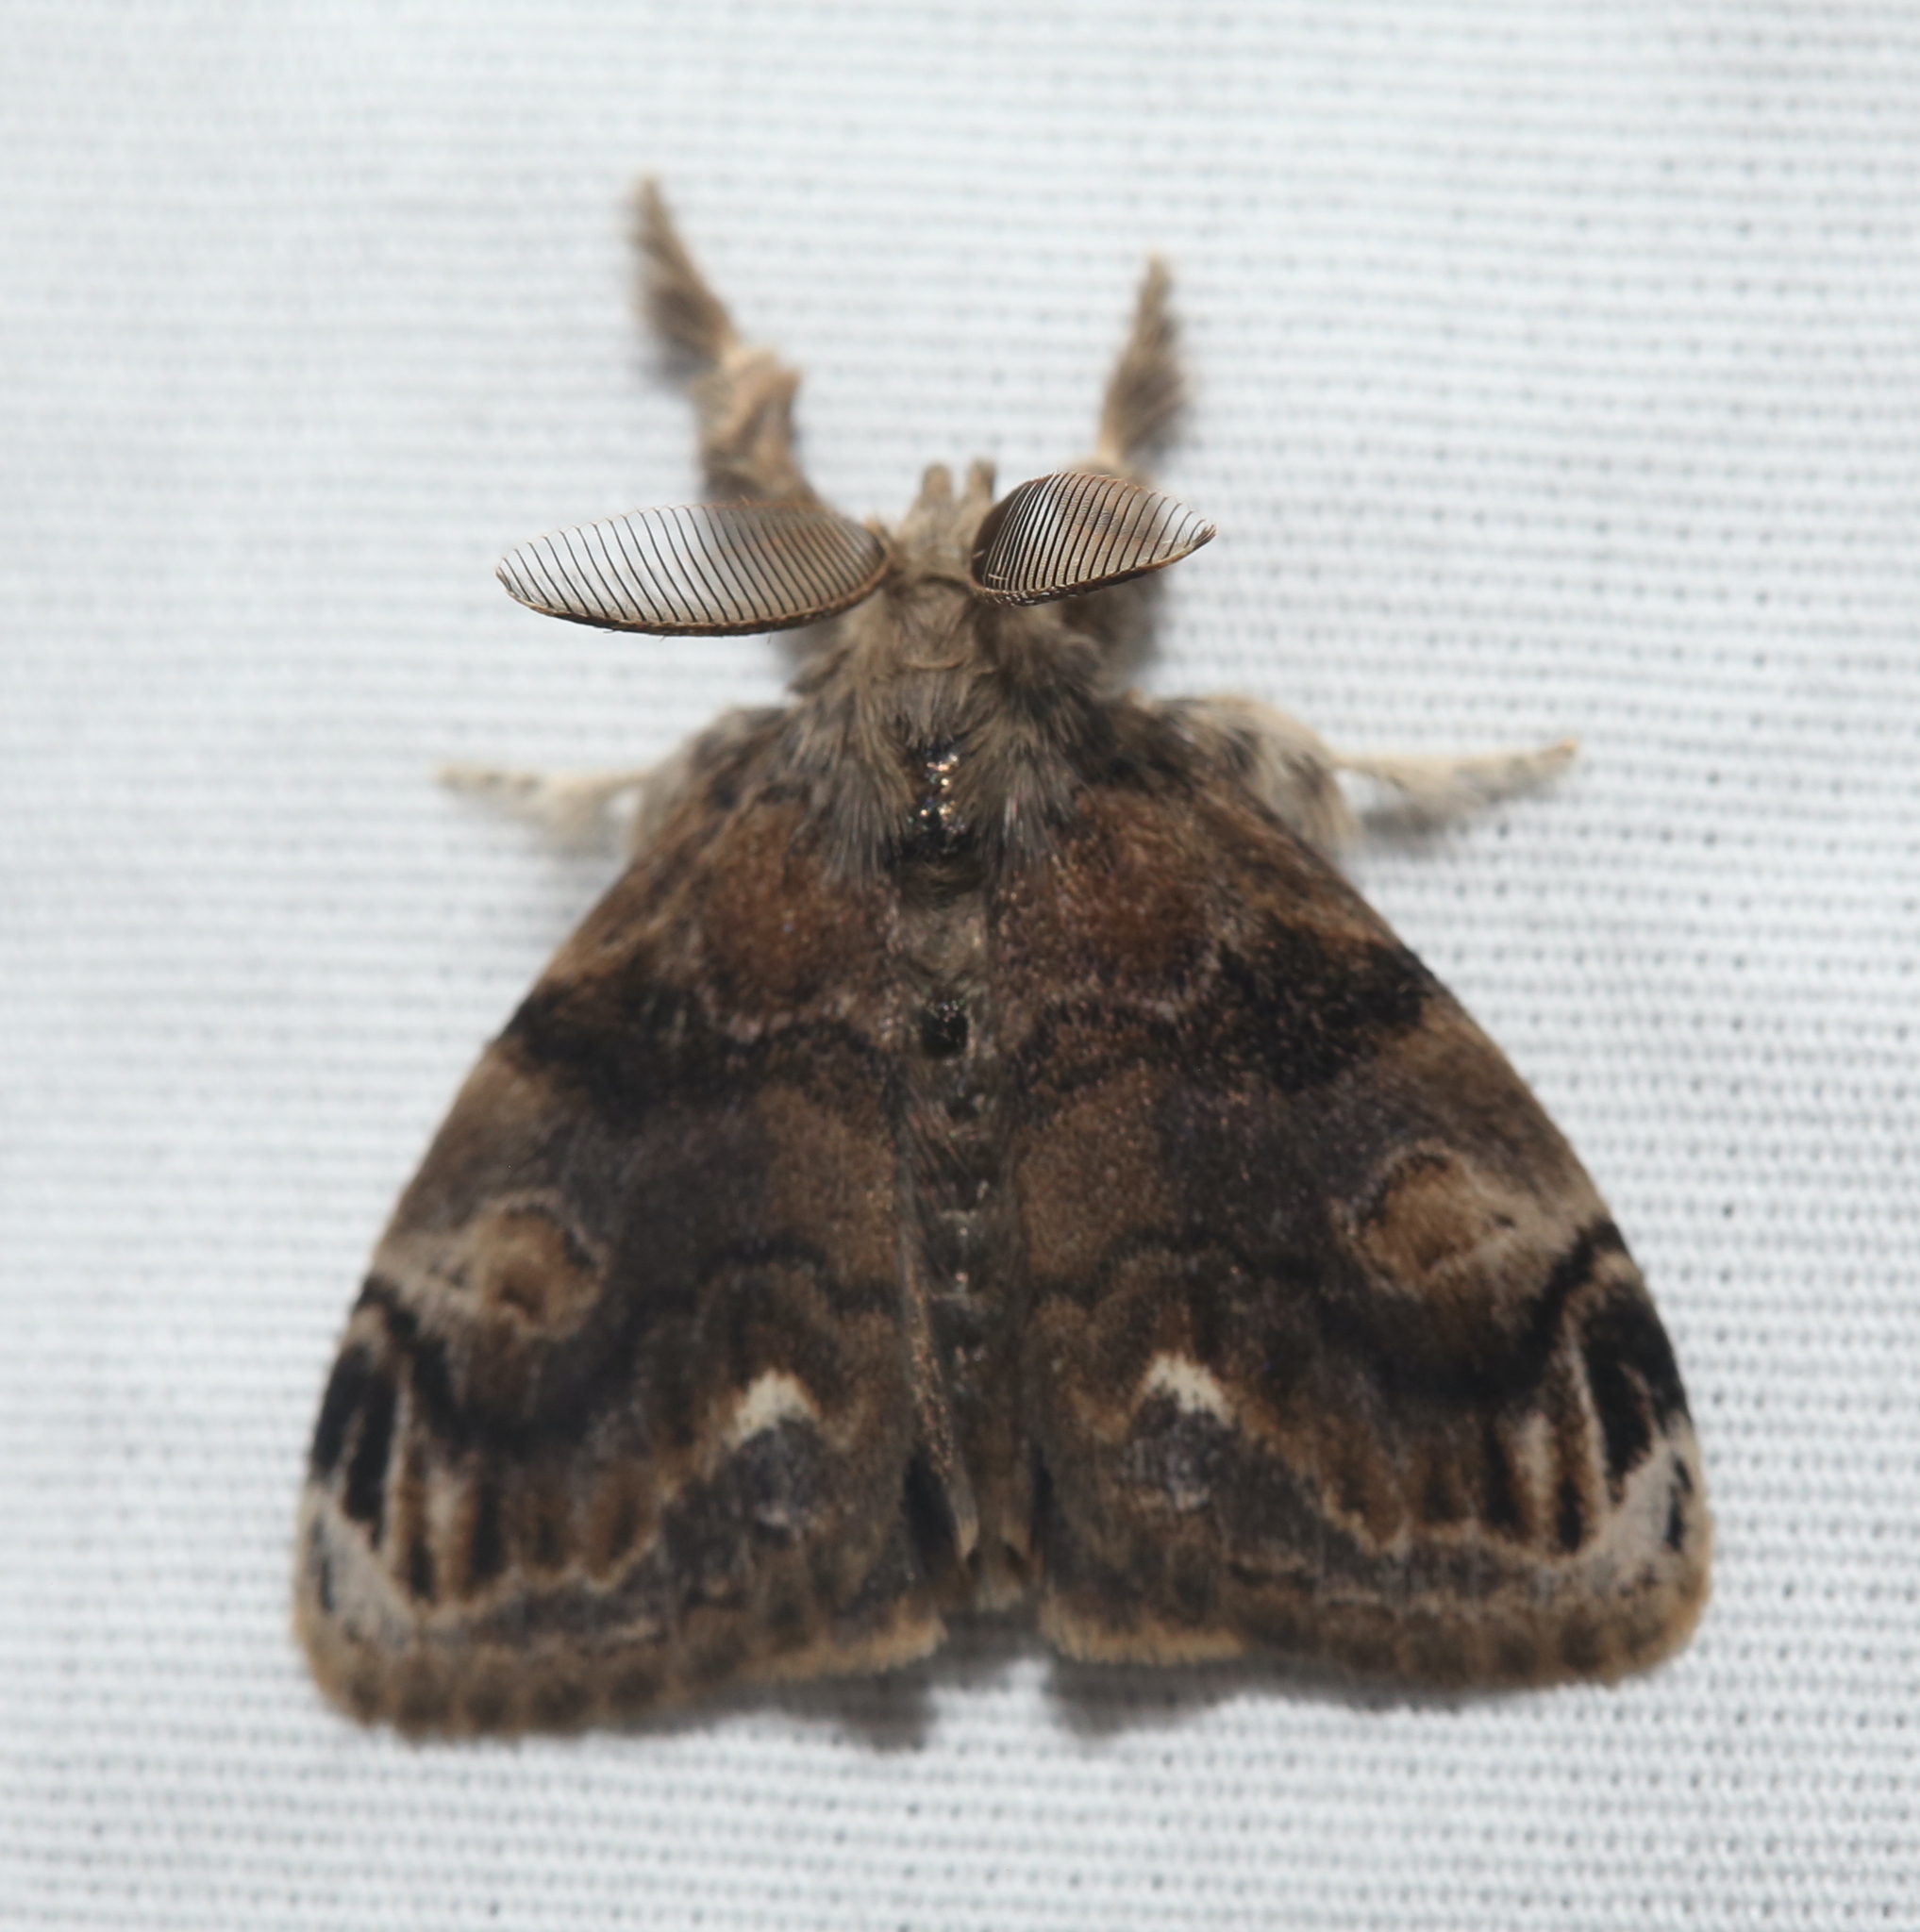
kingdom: Animalia
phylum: Arthropoda
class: Insecta
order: Lepidoptera
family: Erebidae
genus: Orgyia
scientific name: Orgyia definita
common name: Definite tussock moth
